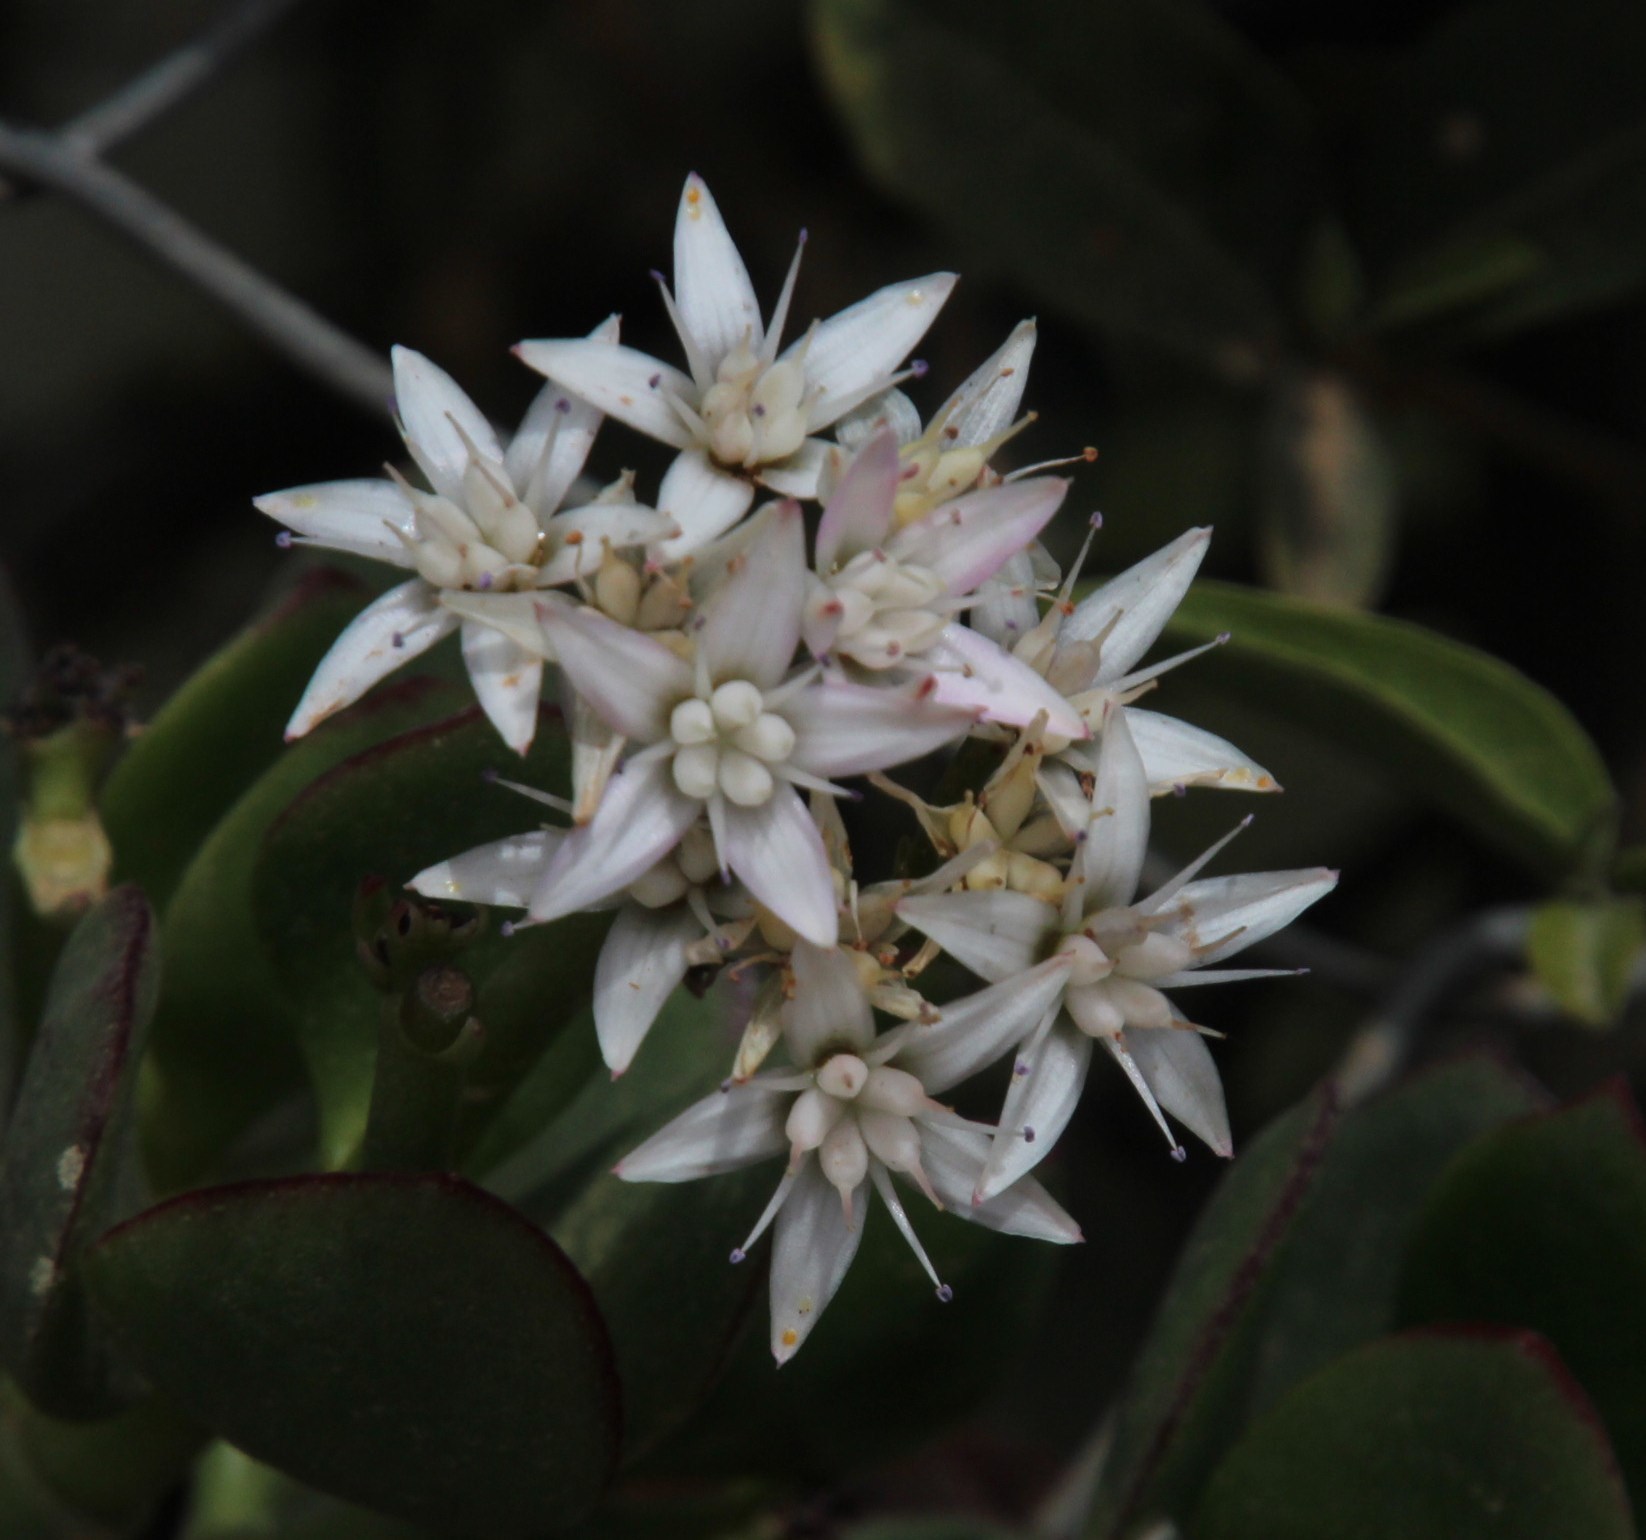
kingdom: Plantae
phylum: Tracheophyta
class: Magnoliopsida
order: Saxifragales
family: Crassulaceae
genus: Crassula
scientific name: Crassula ovata
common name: Jade plant
